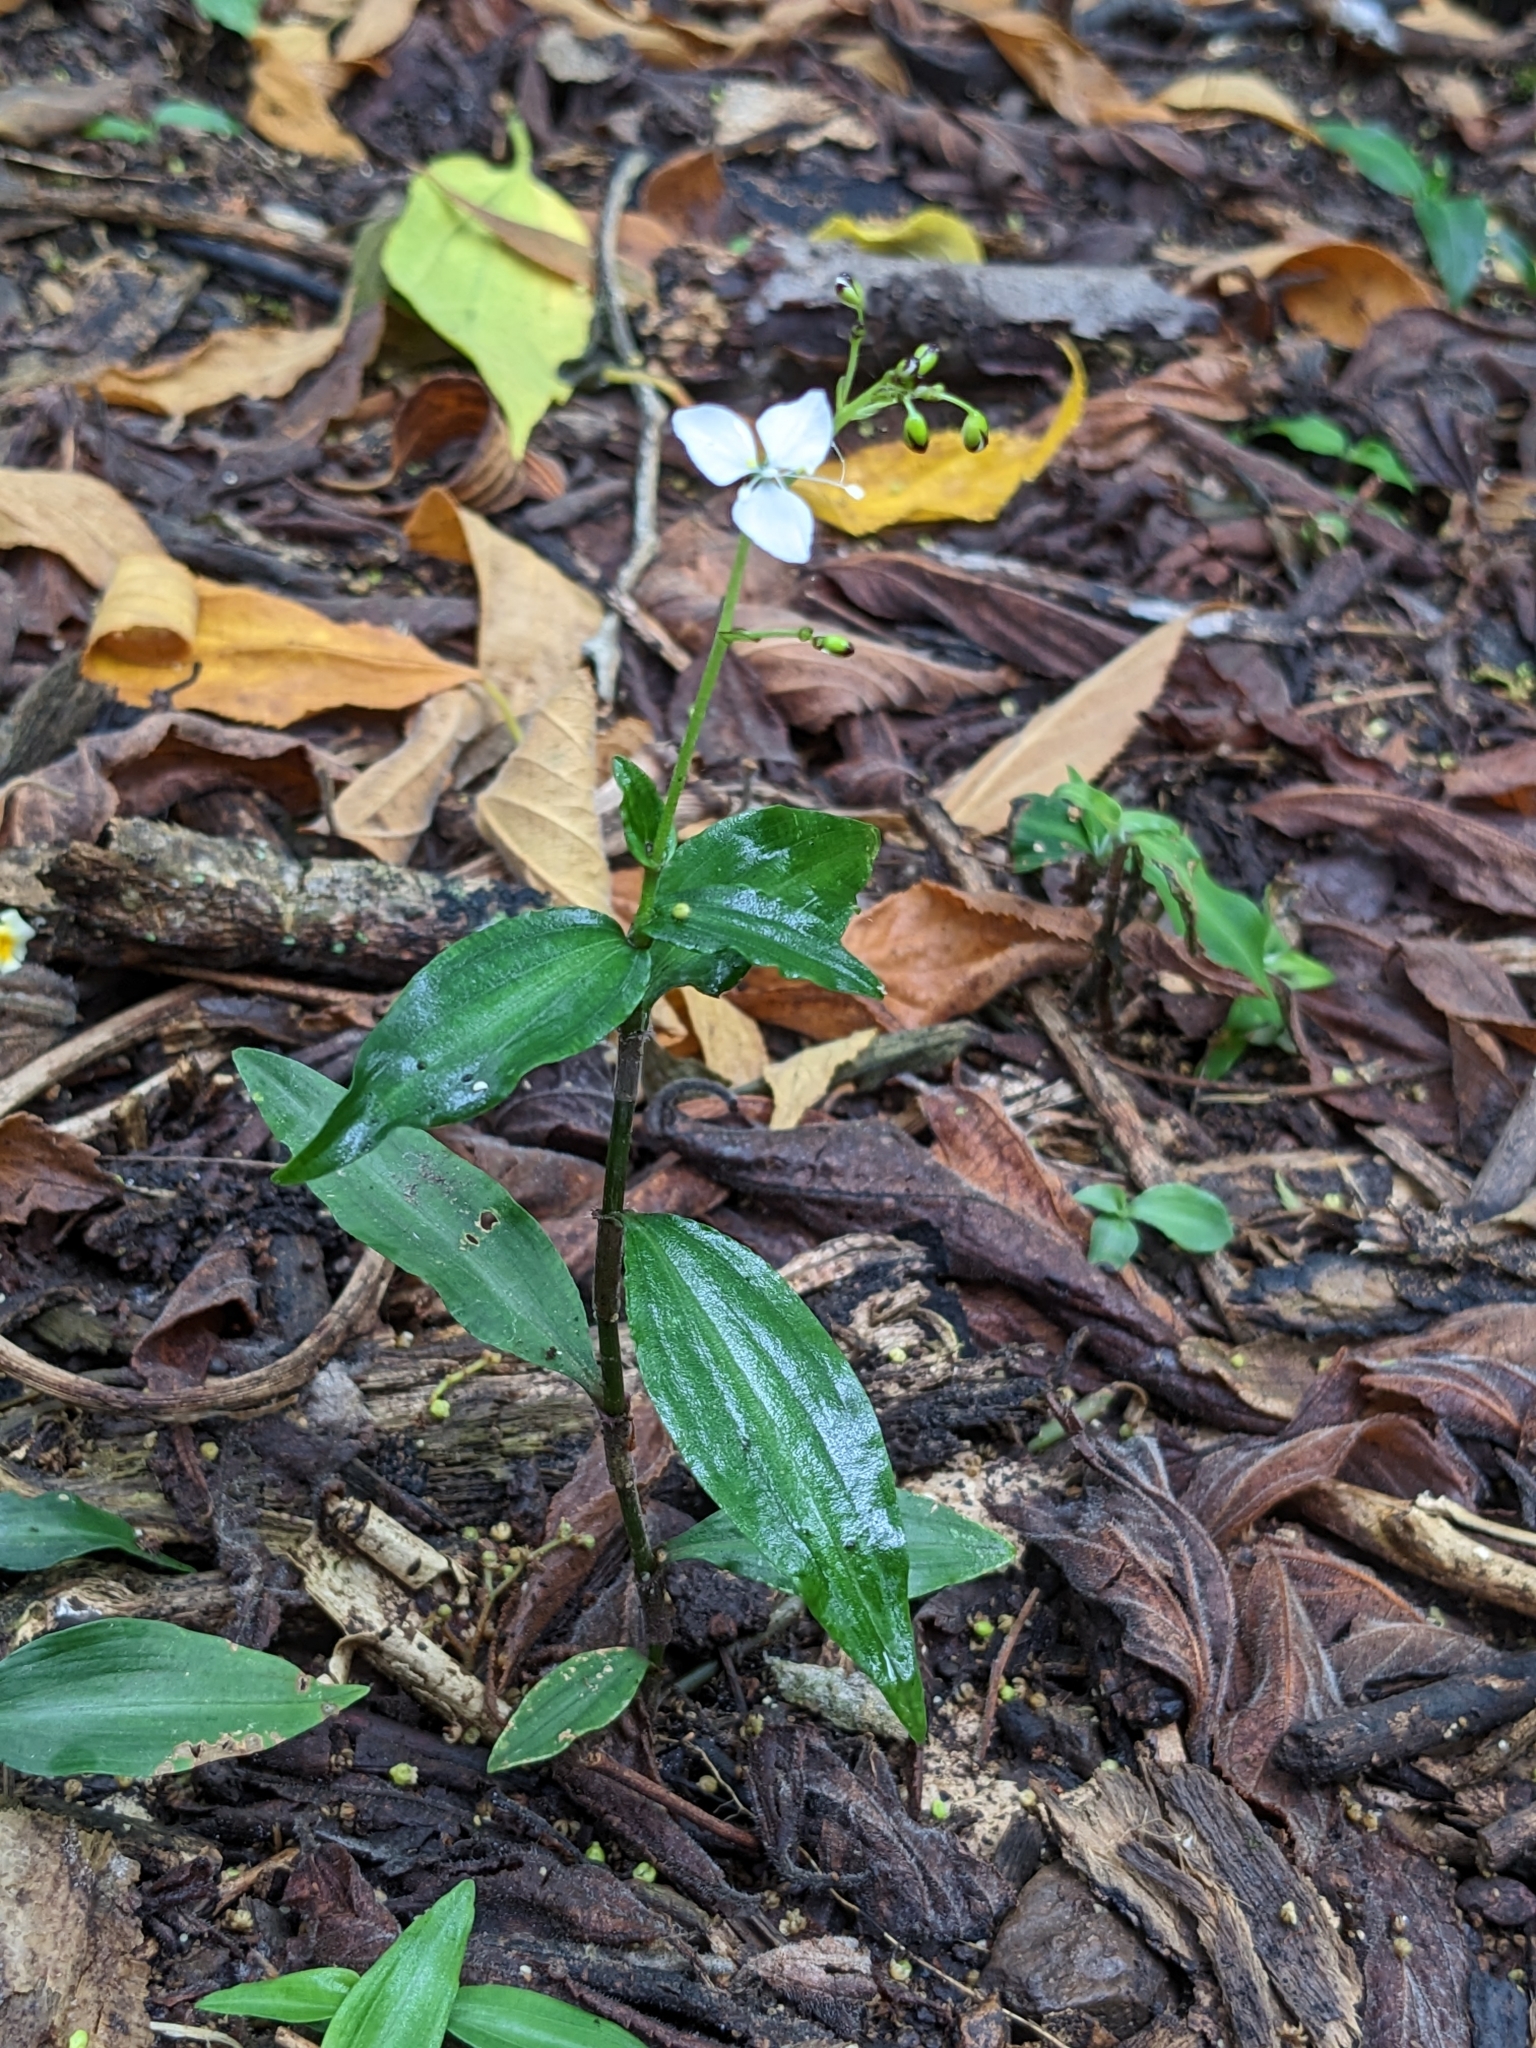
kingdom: Plantae
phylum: Tracheophyta
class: Liliopsida
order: Commelinales
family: Commelinaceae
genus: Aneilema
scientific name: Aneilema acuminatum
